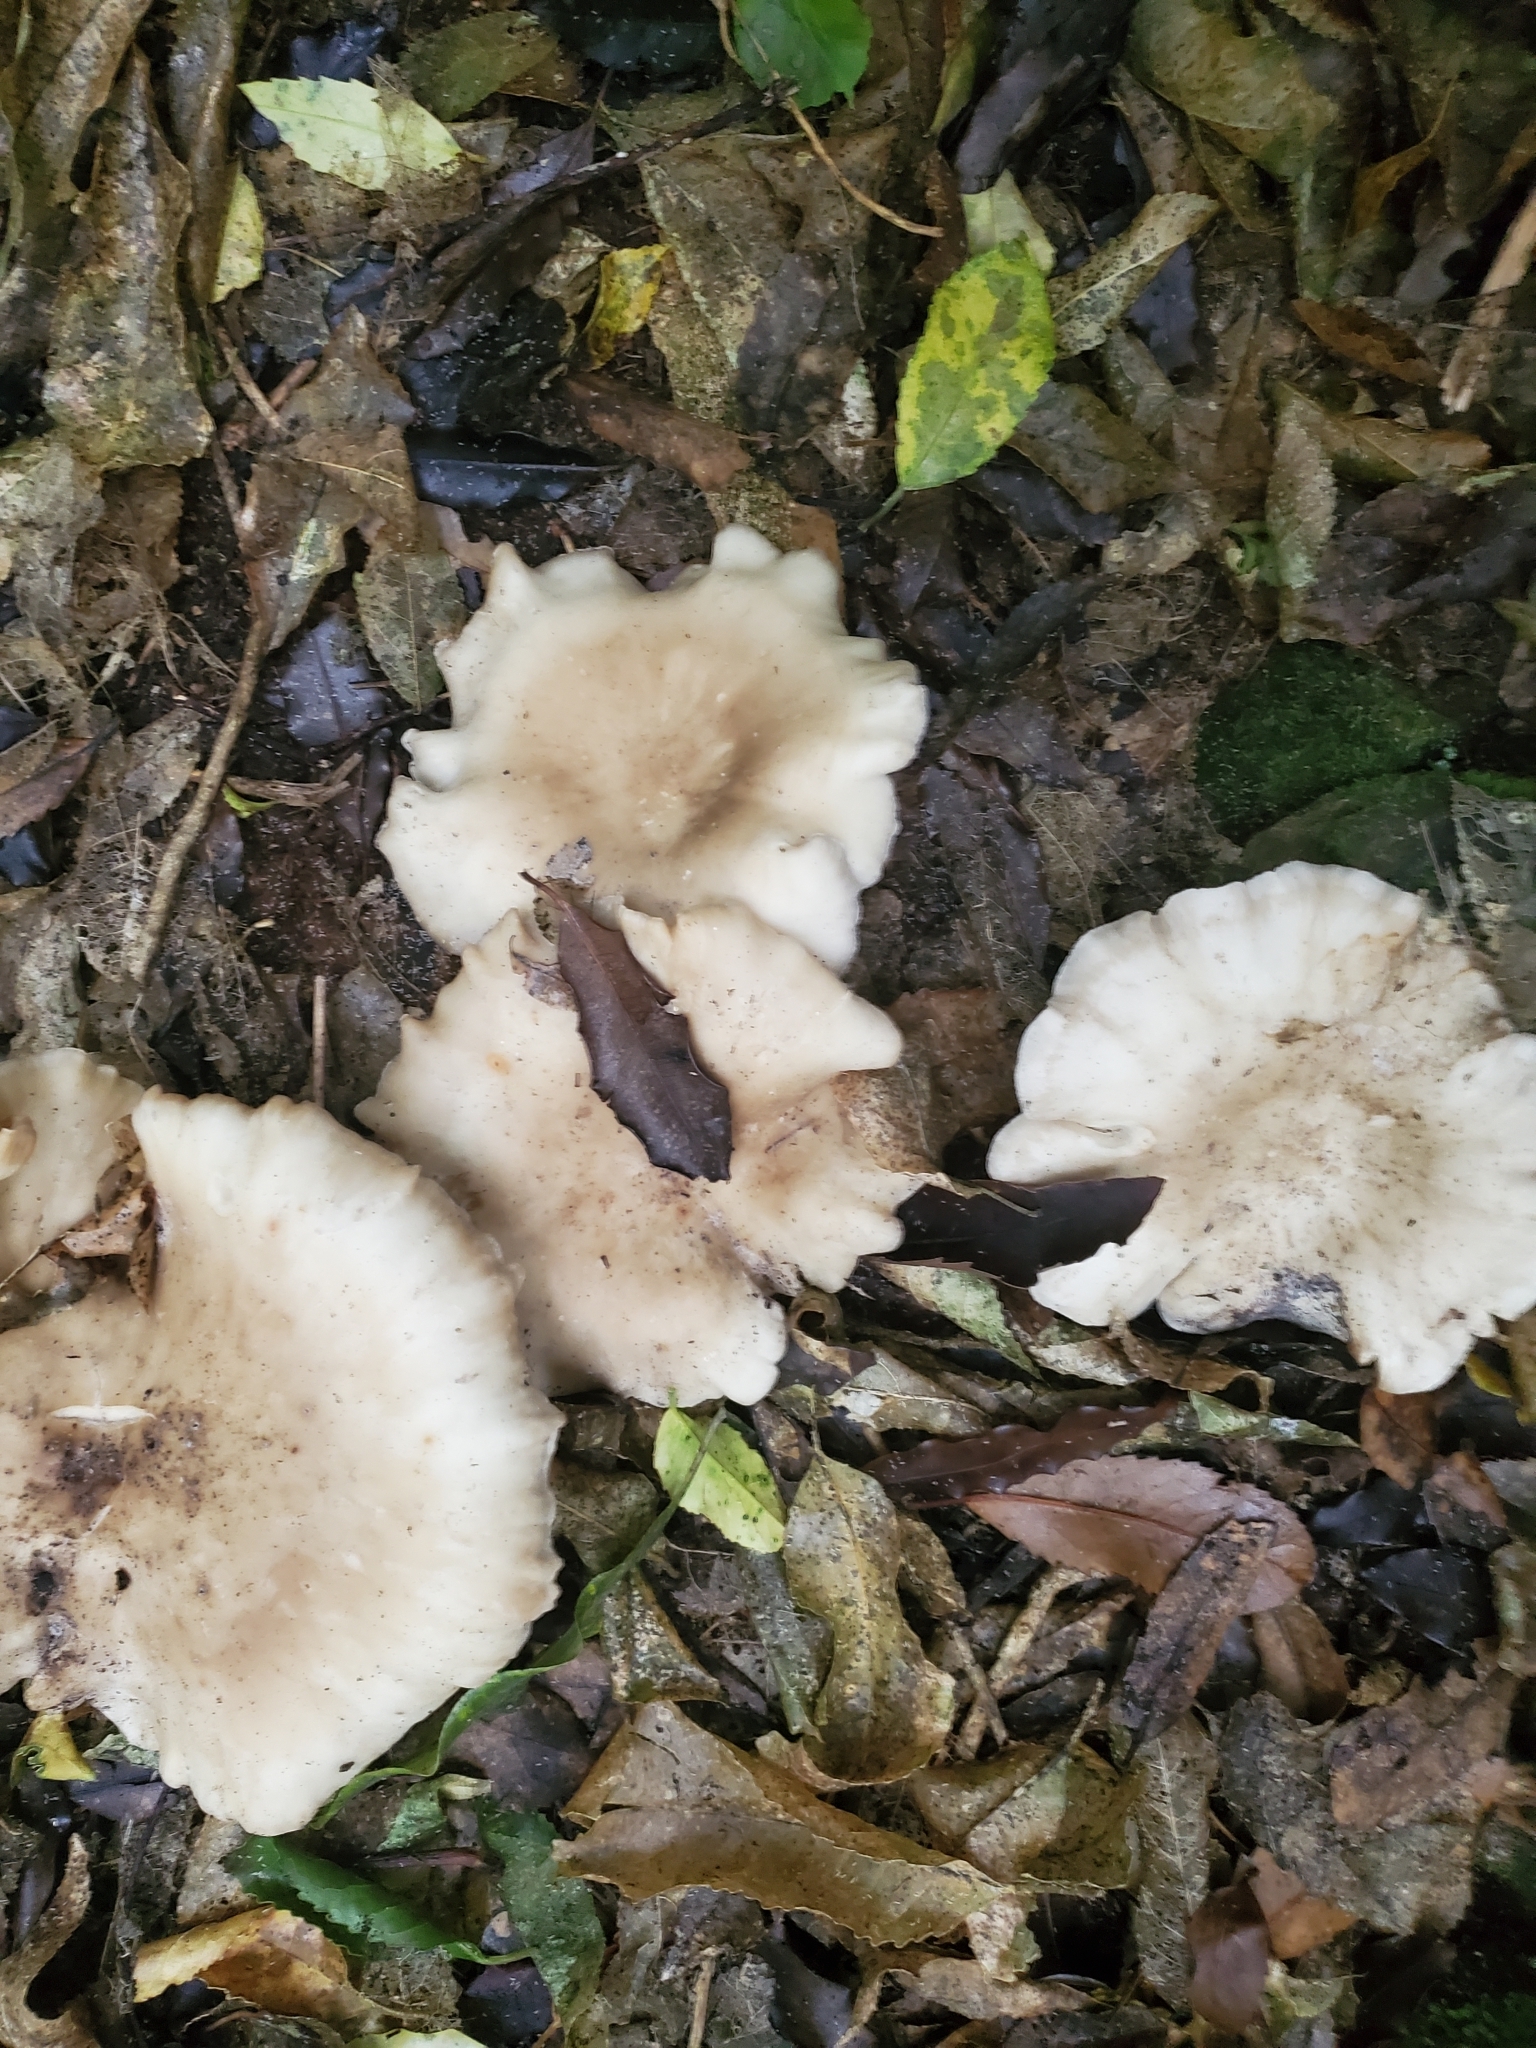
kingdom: Fungi
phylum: Basidiomycota
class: Agaricomycetes
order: Agaricales
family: Tricholomataceae
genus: Clitocybe
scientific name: Clitocybe nebularis
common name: Clouded agaric
